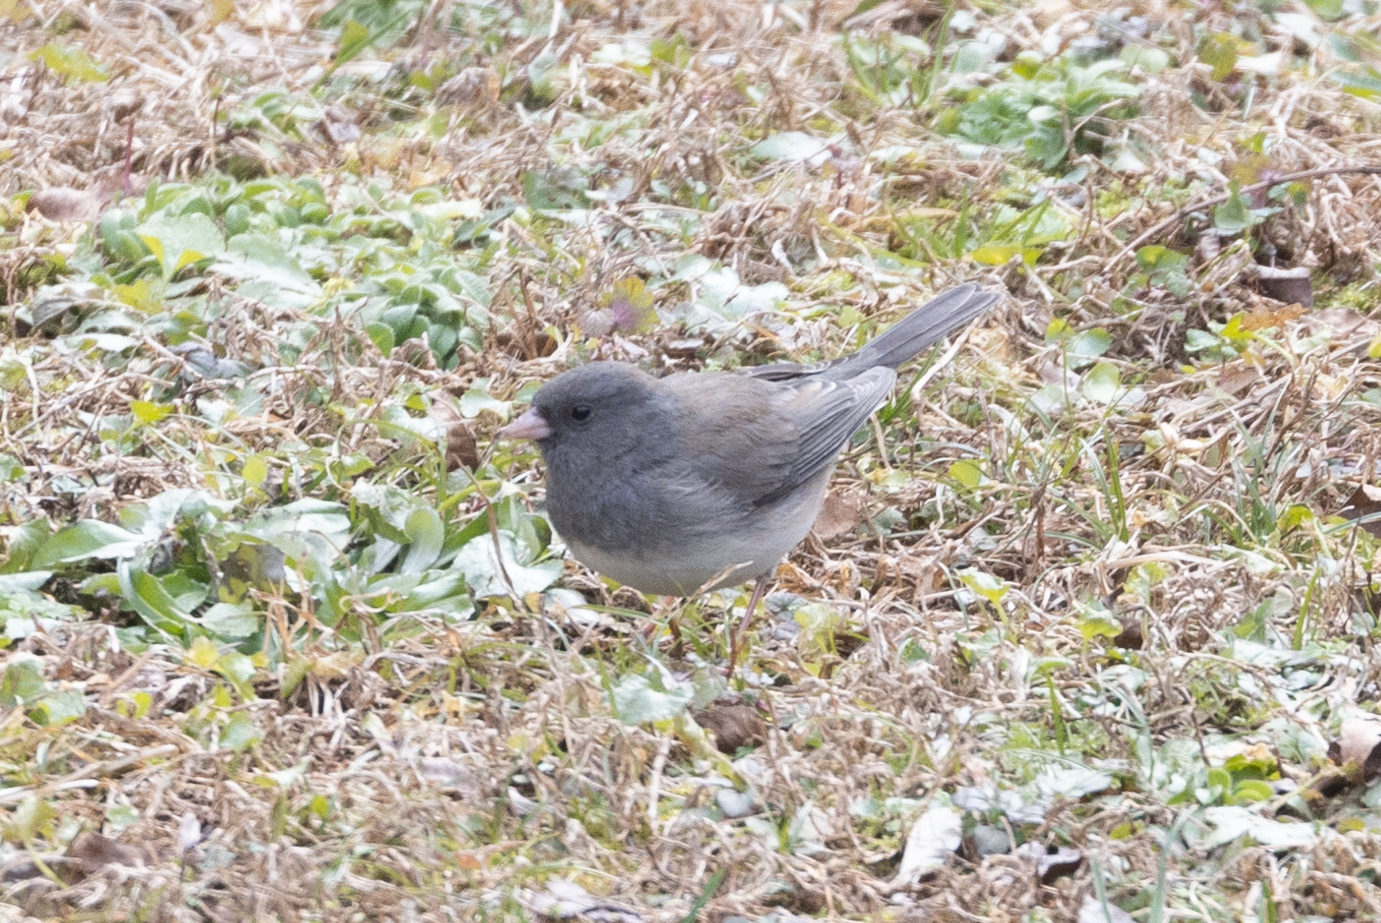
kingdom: Animalia
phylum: Chordata
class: Aves
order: Passeriformes
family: Passerellidae
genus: Junco
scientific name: Junco hyemalis
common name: Dark-eyed junco
